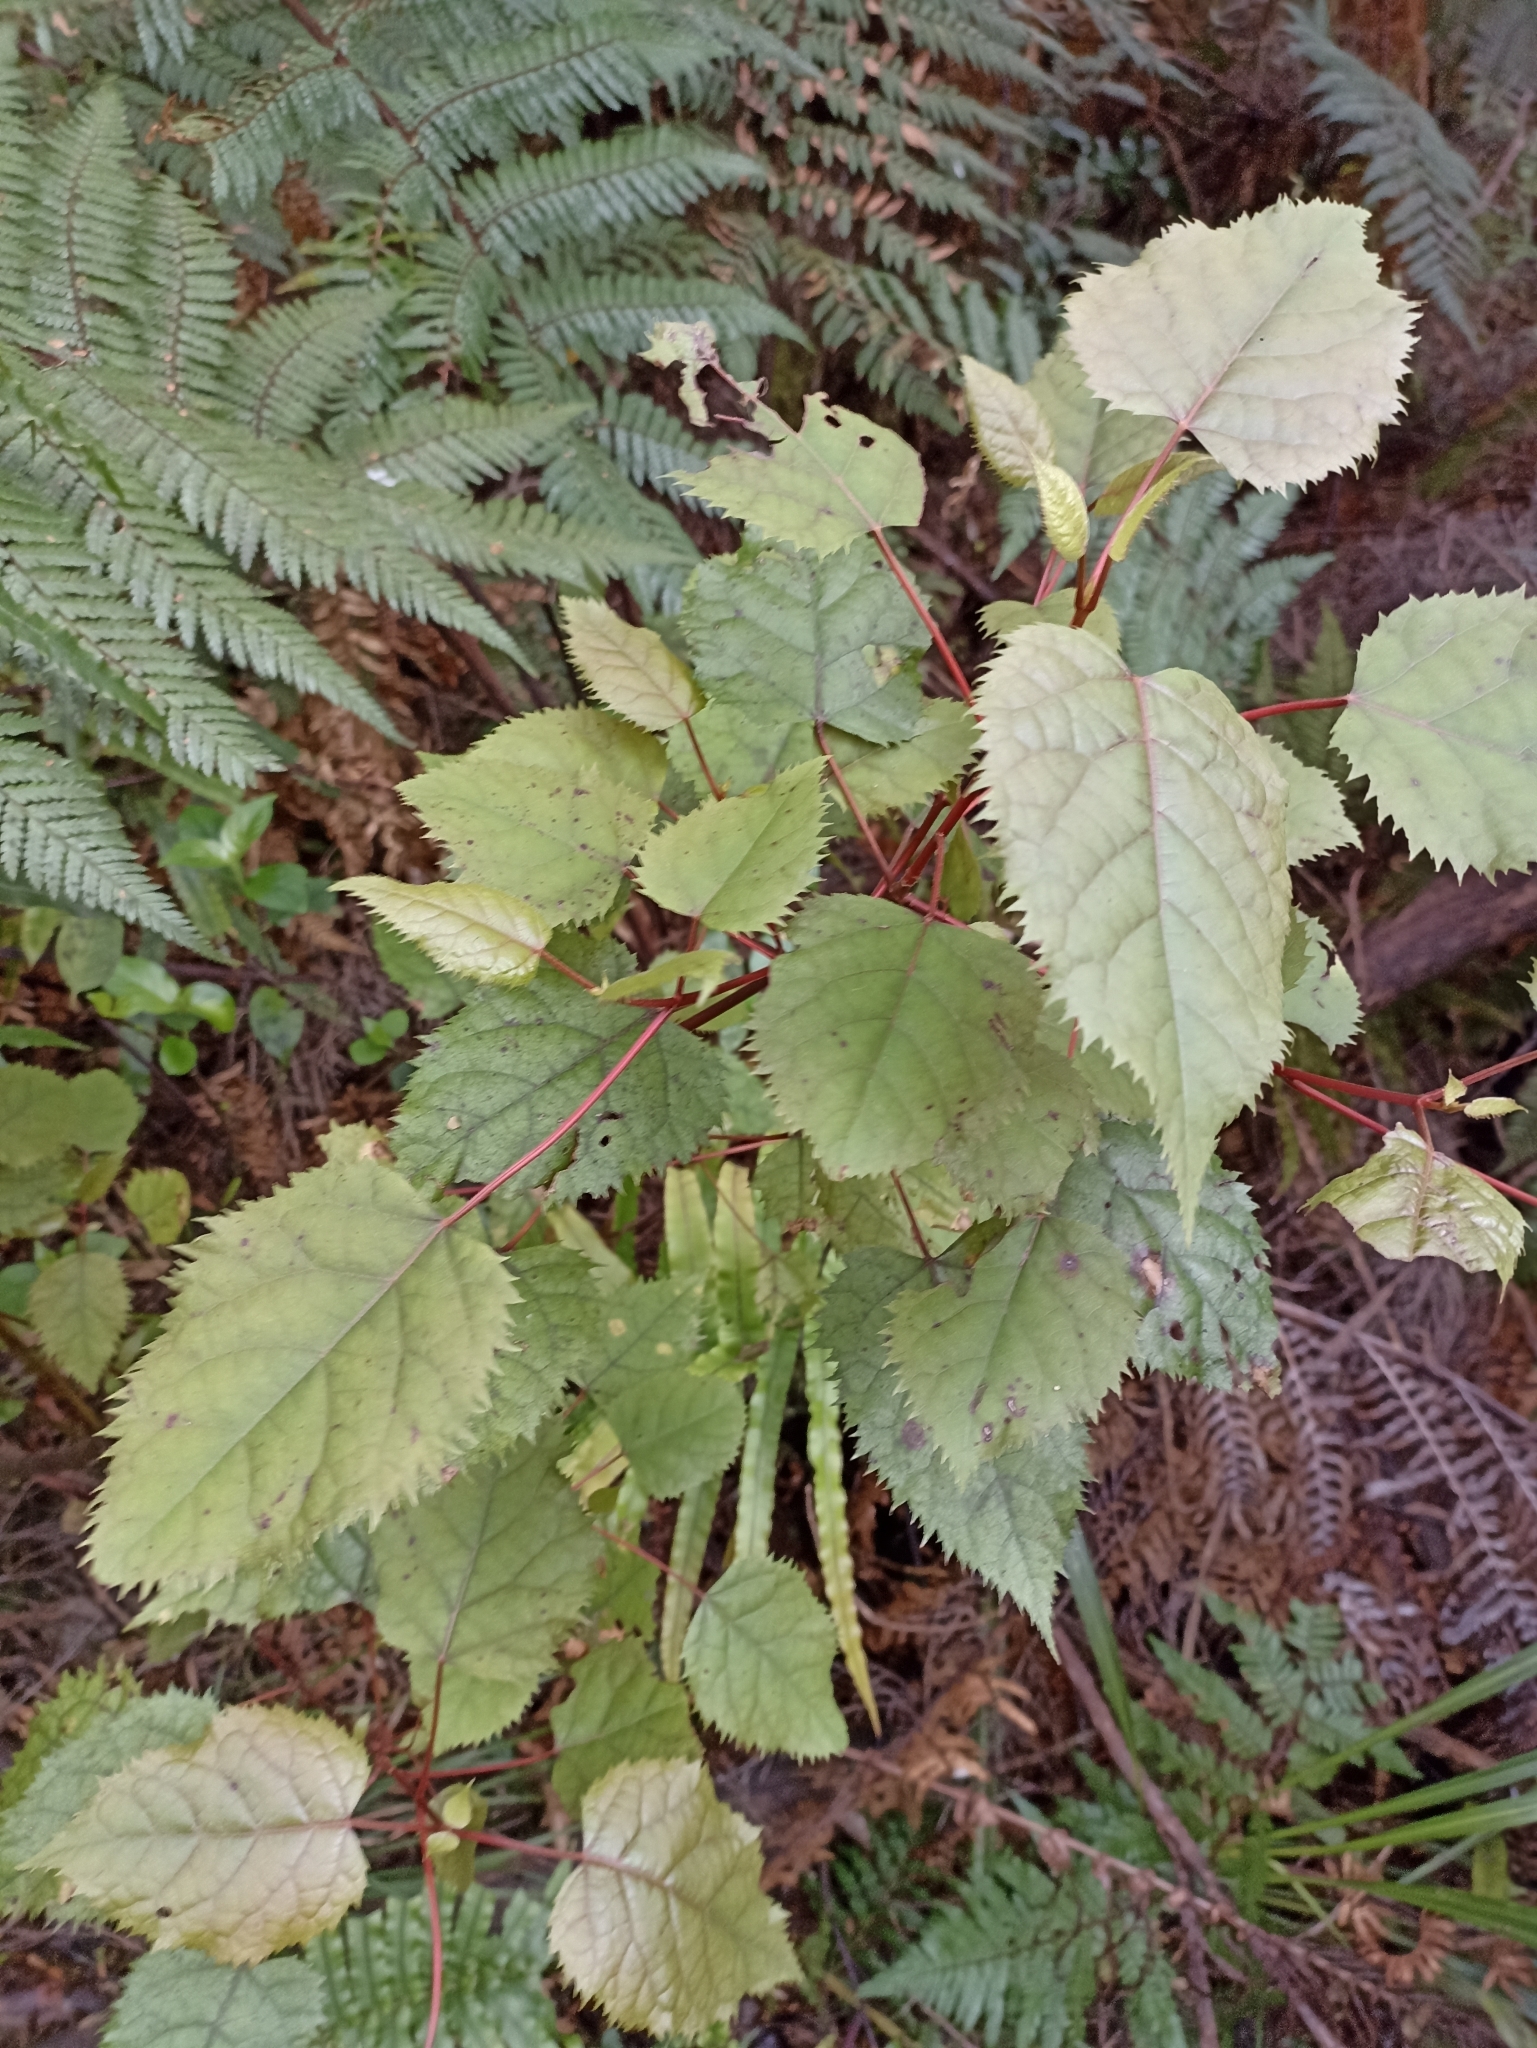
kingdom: Plantae
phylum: Tracheophyta
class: Magnoliopsida
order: Oxalidales
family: Elaeocarpaceae
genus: Aristotelia
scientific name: Aristotelia serrata
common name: New zealand wineberry
